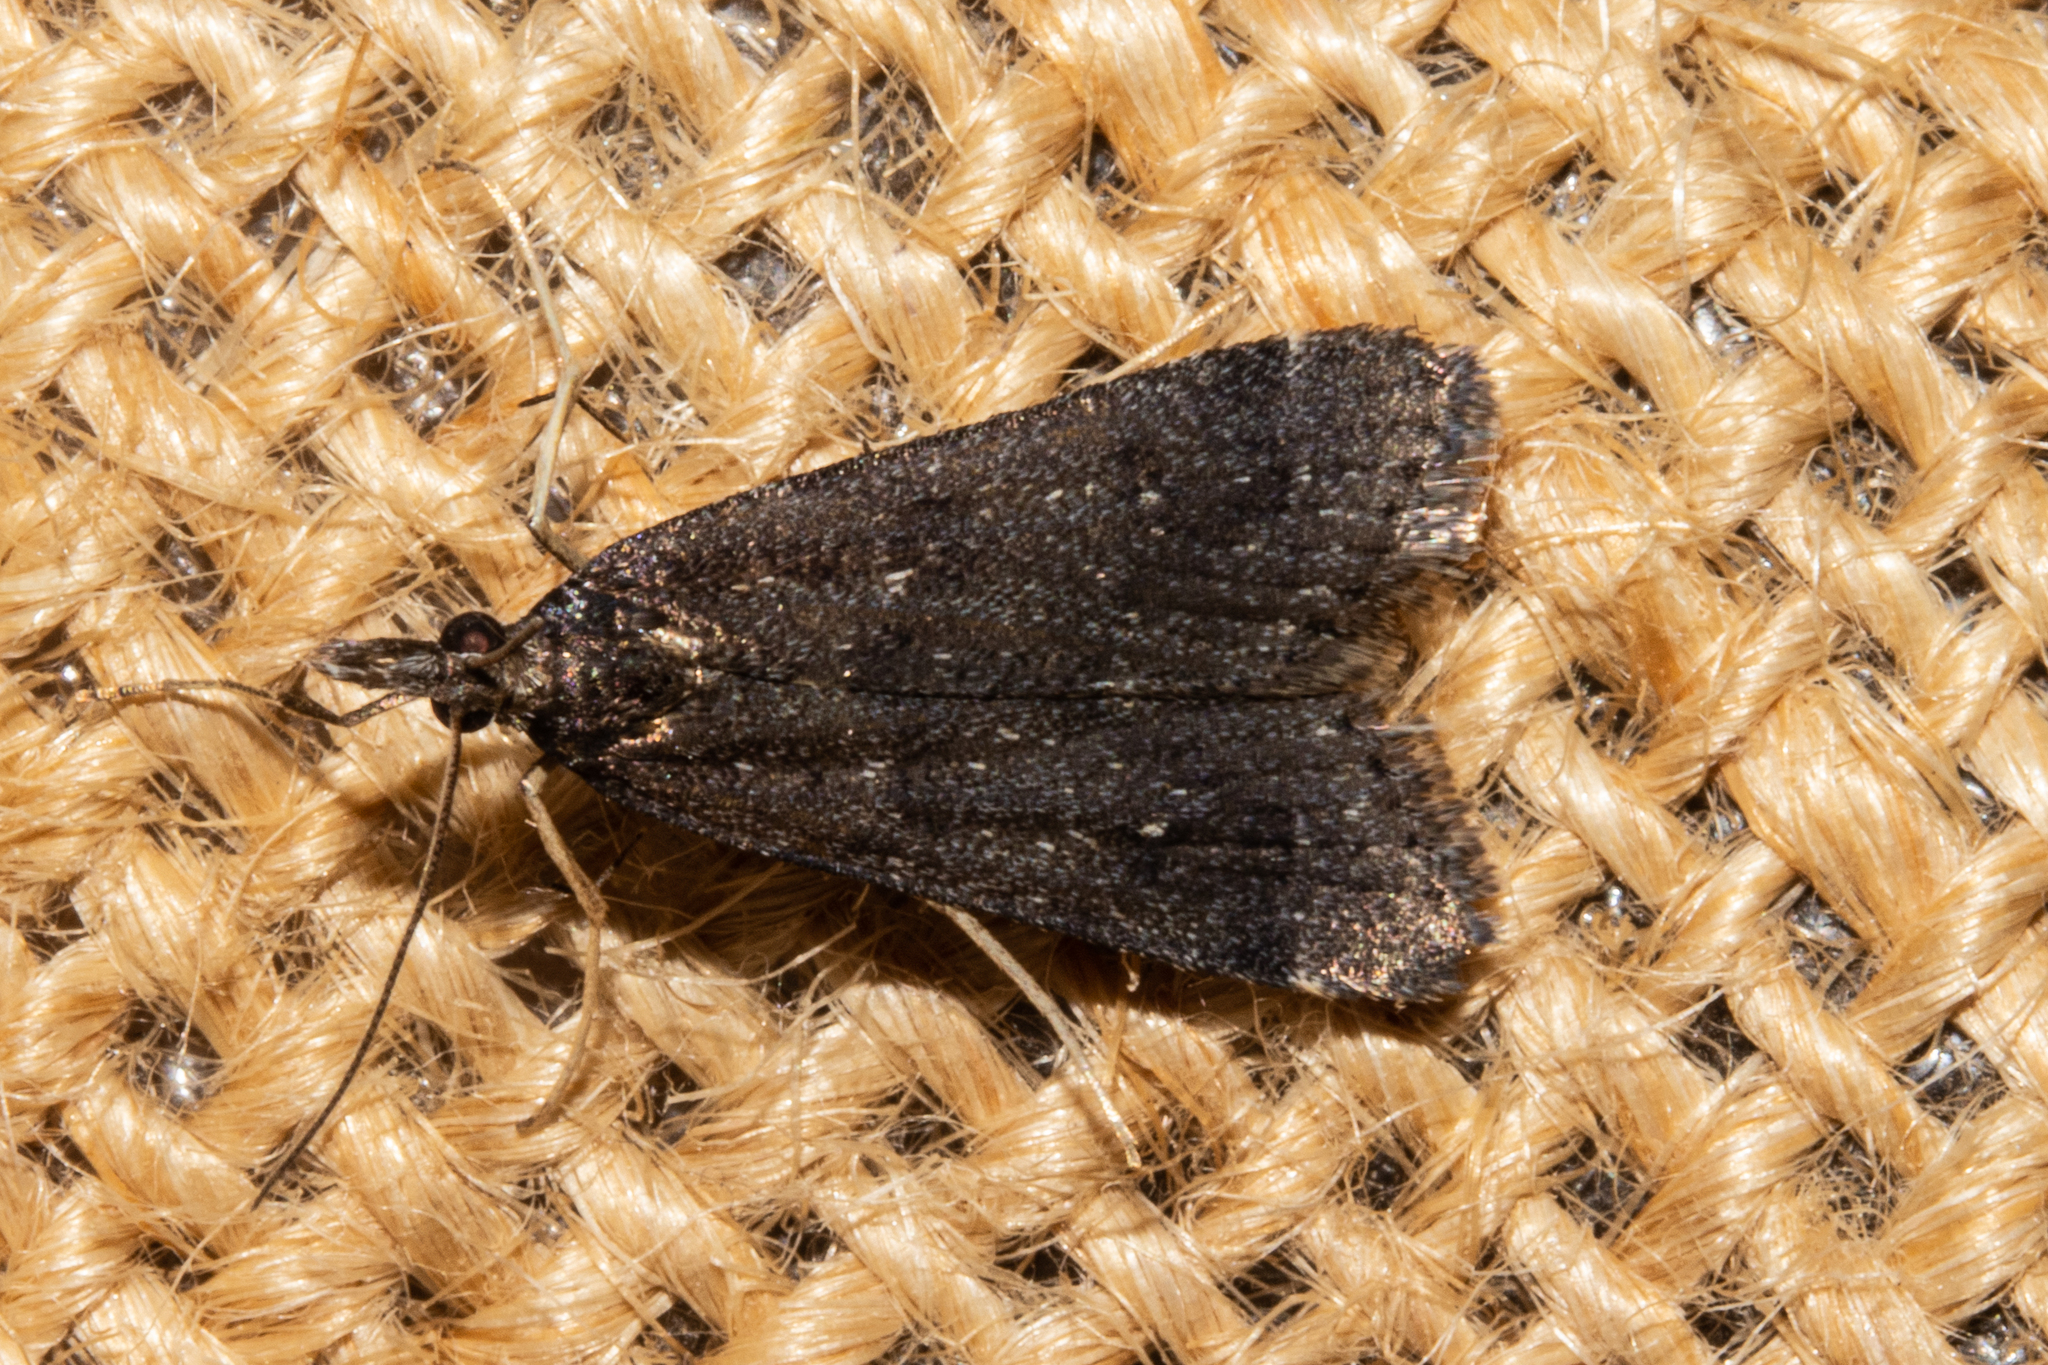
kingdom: Animalia
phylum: Arthropoda
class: Insecta
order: Lepidoptera
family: Crambidae
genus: Eudonia
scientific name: Eudonia oculata
